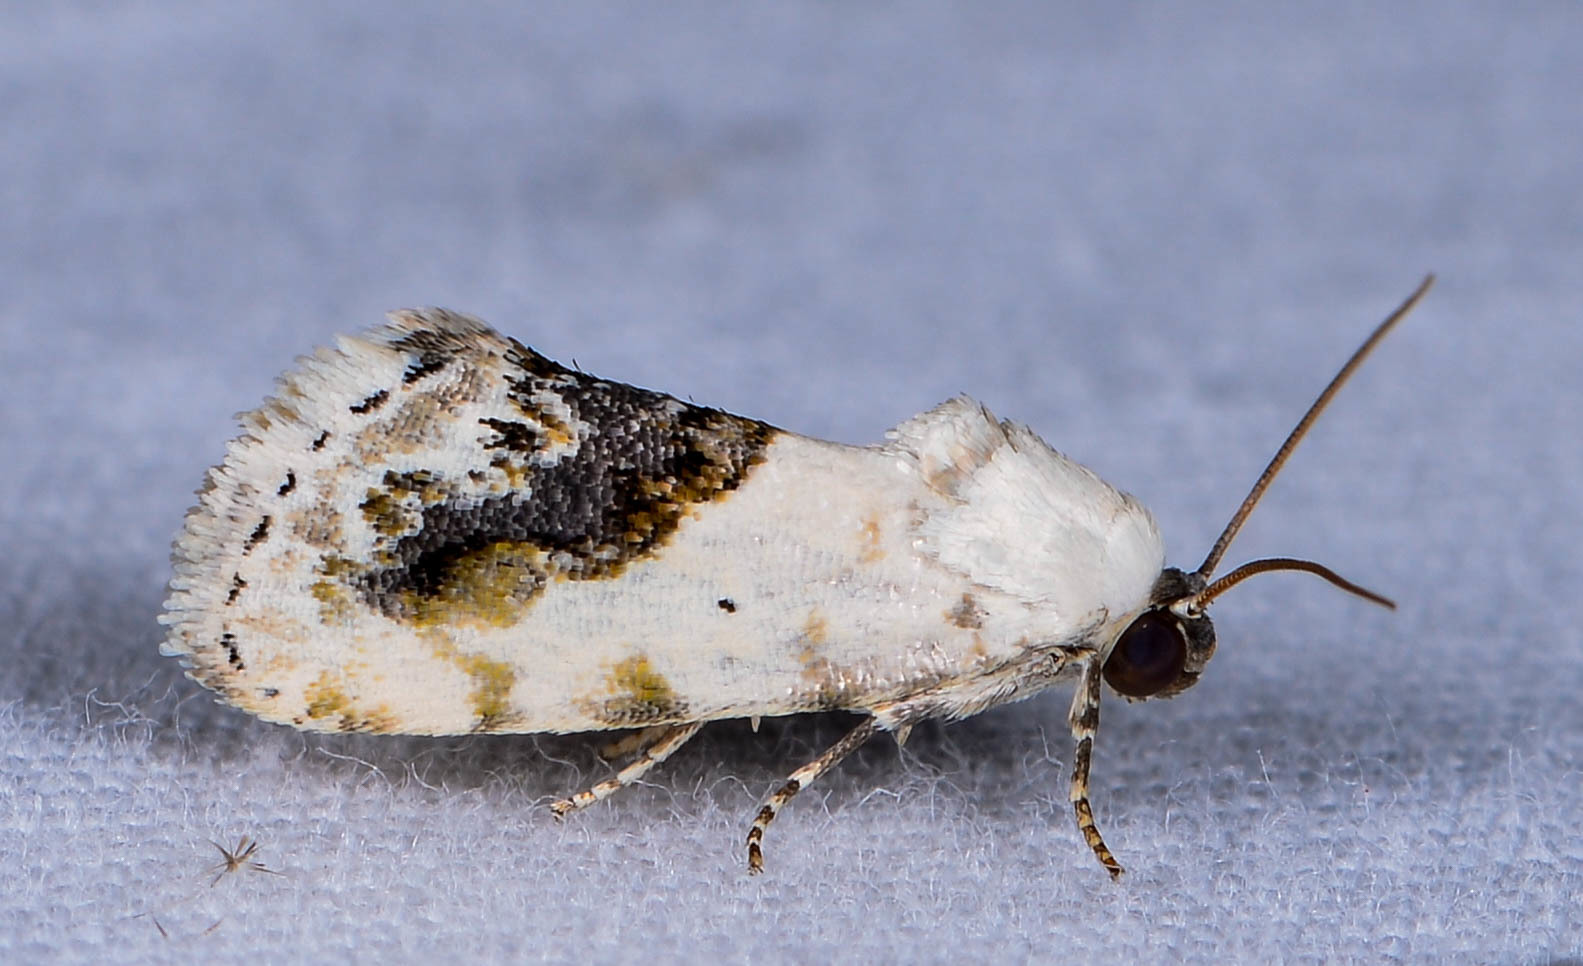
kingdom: Animalia
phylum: Arthropoda
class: Insecta
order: Lepidoptera
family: Noctuidae
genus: Acontia
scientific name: Acontia erastrioides
